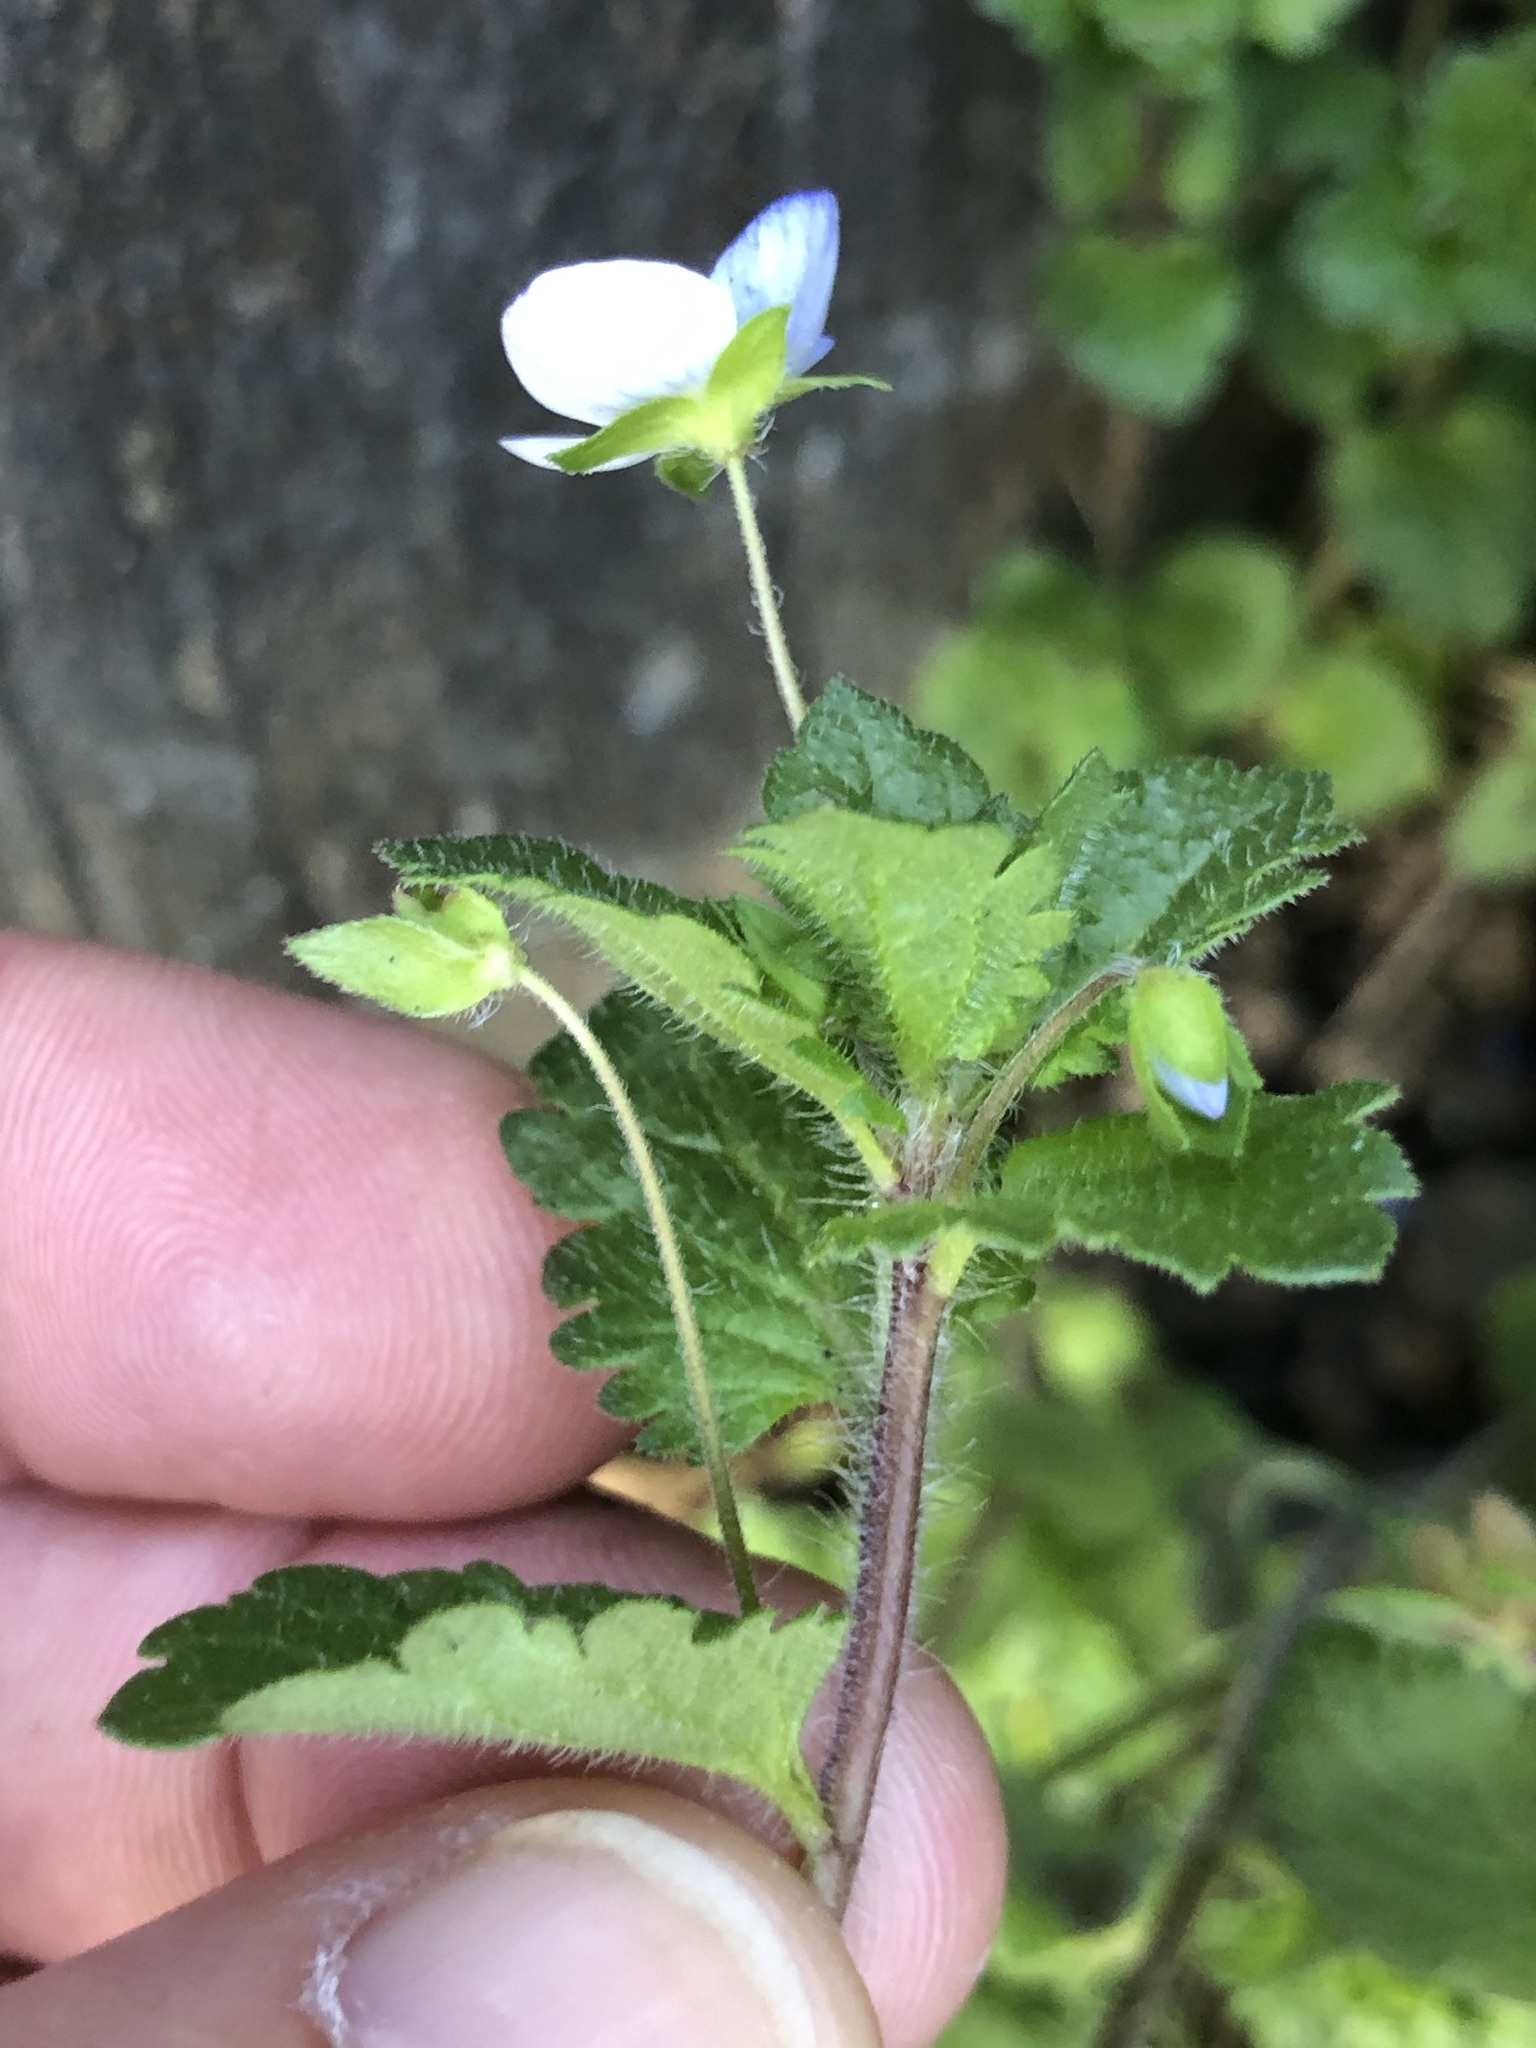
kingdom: Plantae
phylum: Tracheophyta
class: Magnoliopsida
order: Lamiales
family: Plantaginaceae
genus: Veronica
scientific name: Veronica persica
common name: Common field-speedwell
